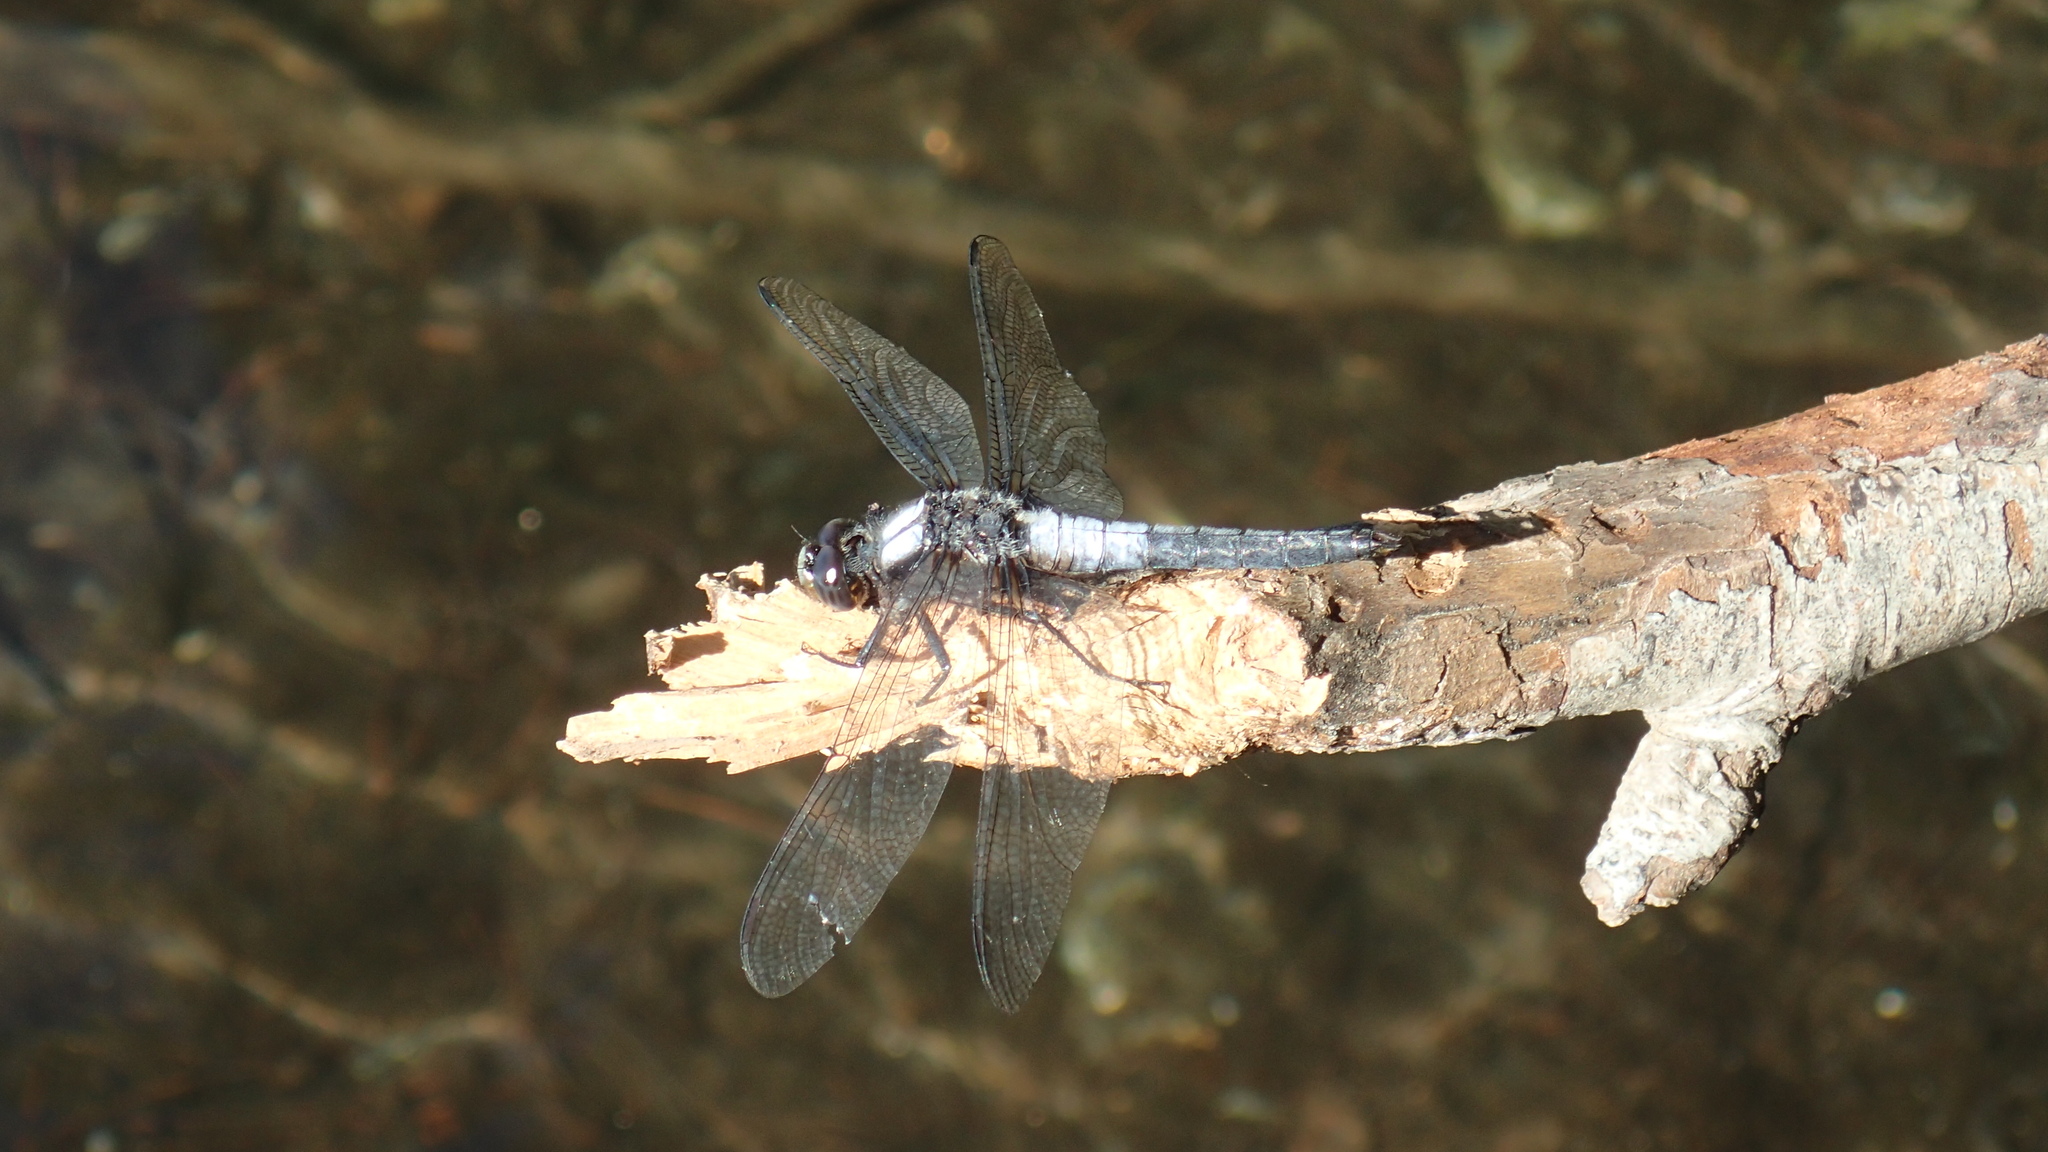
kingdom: Animalia
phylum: Arthropoda
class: Insecta
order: Odonata
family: Libellulidae
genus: Ladona
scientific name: Ladona julia
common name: Chalk-fronted corporal
